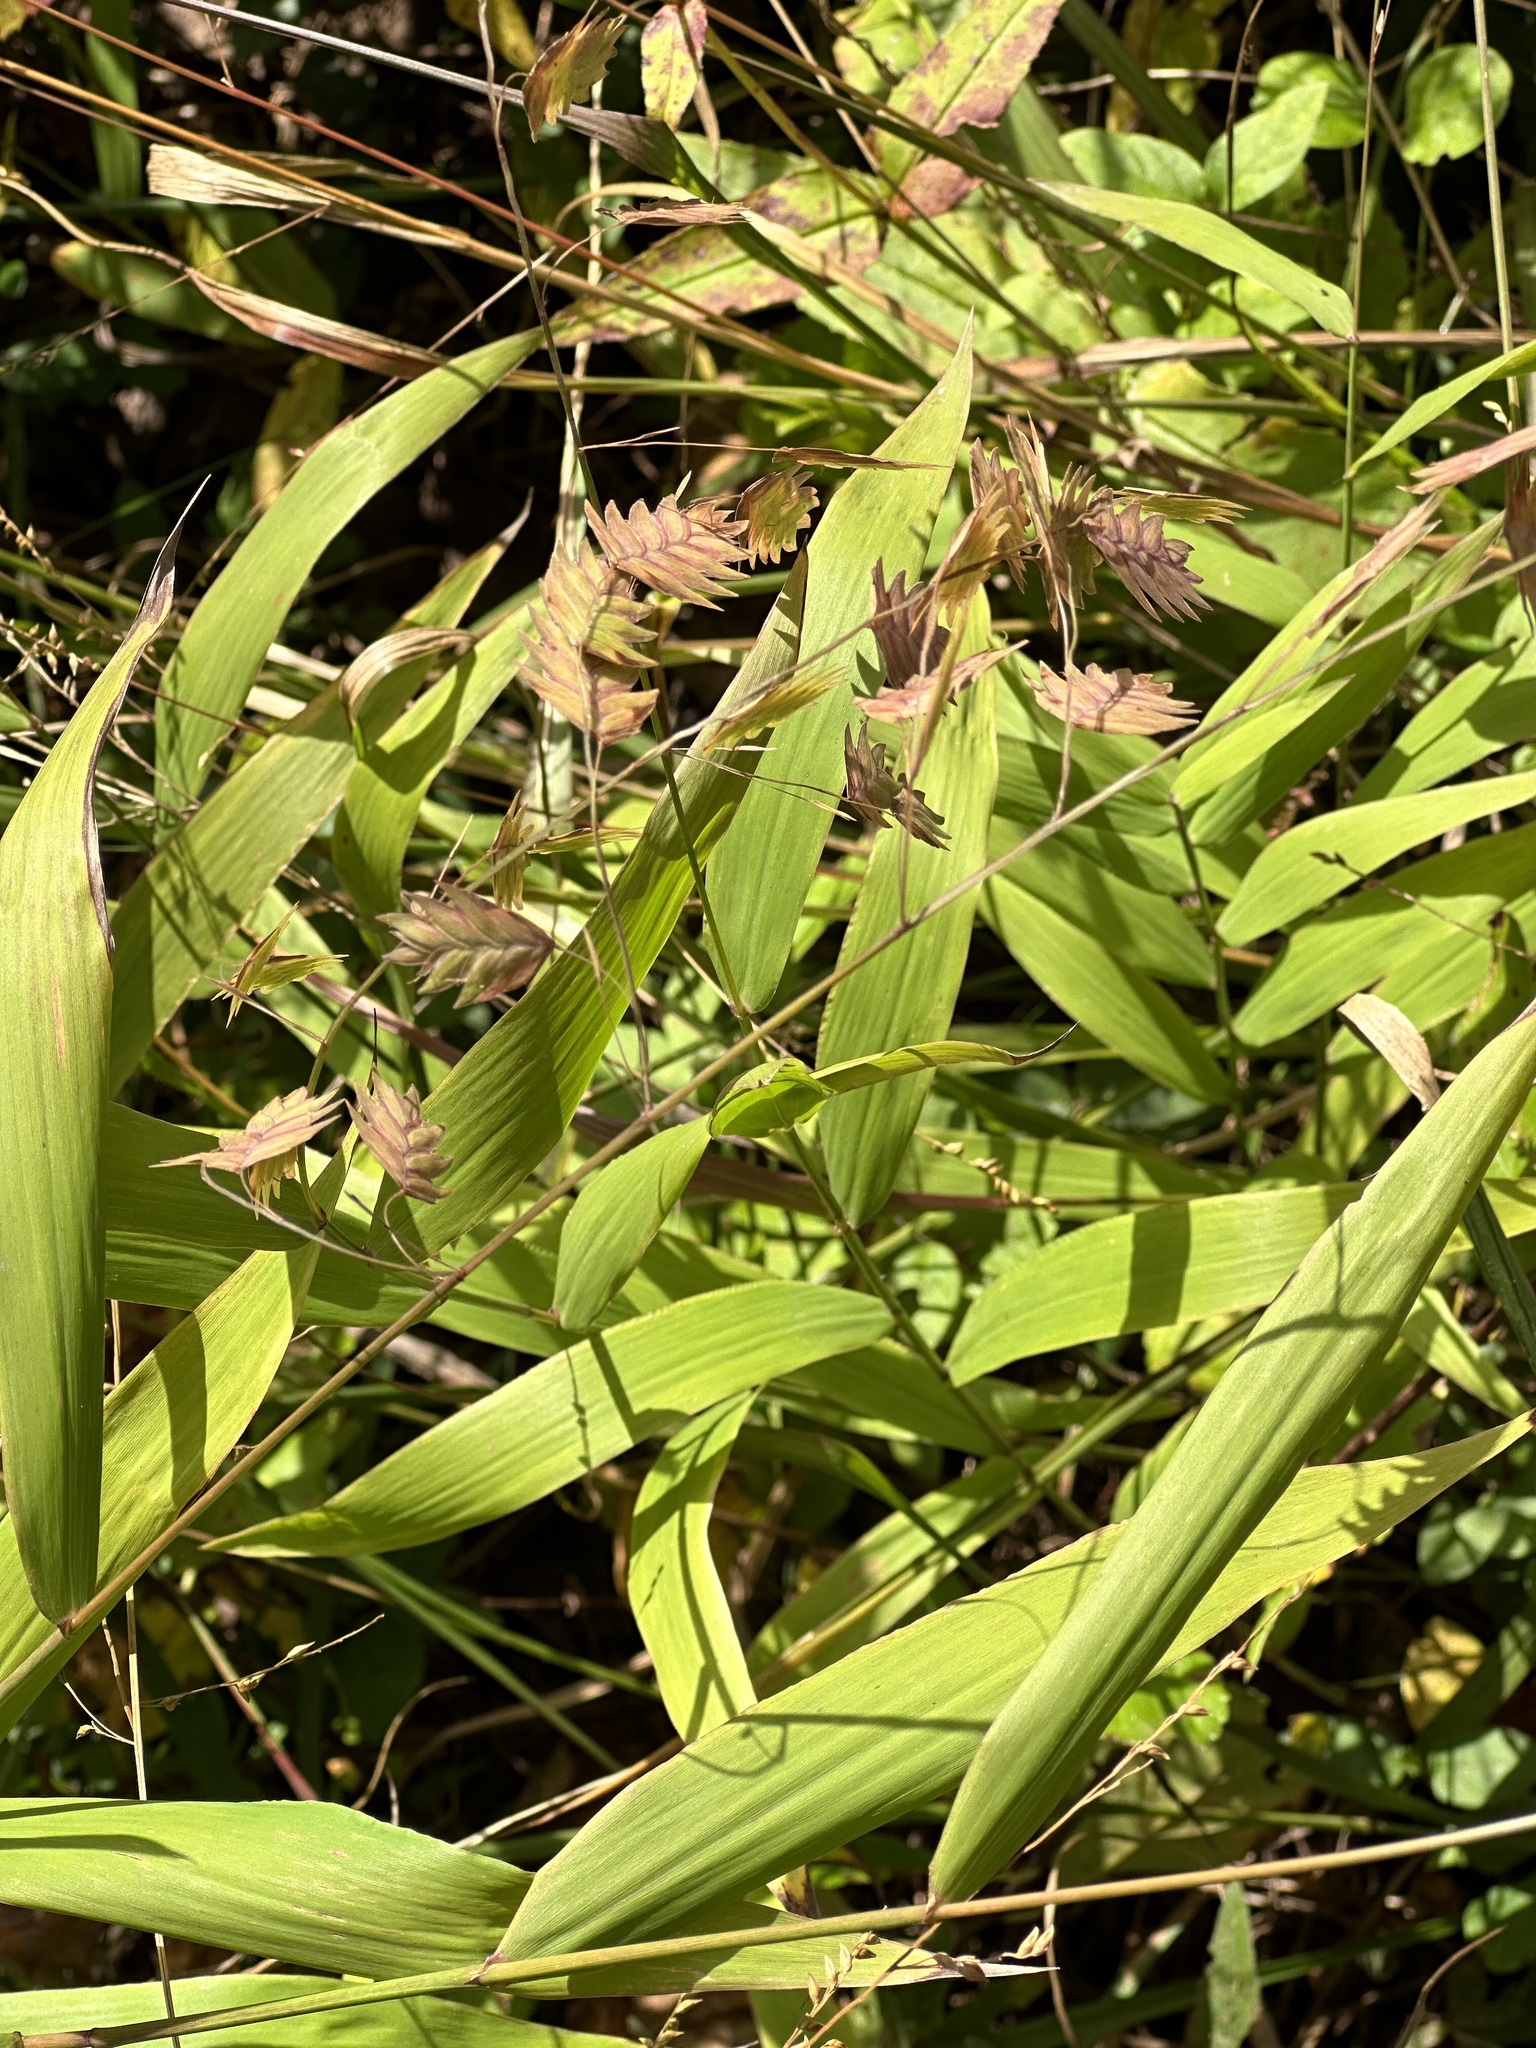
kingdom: Plantae
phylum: Tracheophyta
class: Liliopsida
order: Poales
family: Poaceae
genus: Chasmanthium
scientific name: Chasmanthium latifolium
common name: Broad-leaved chasmanthium
